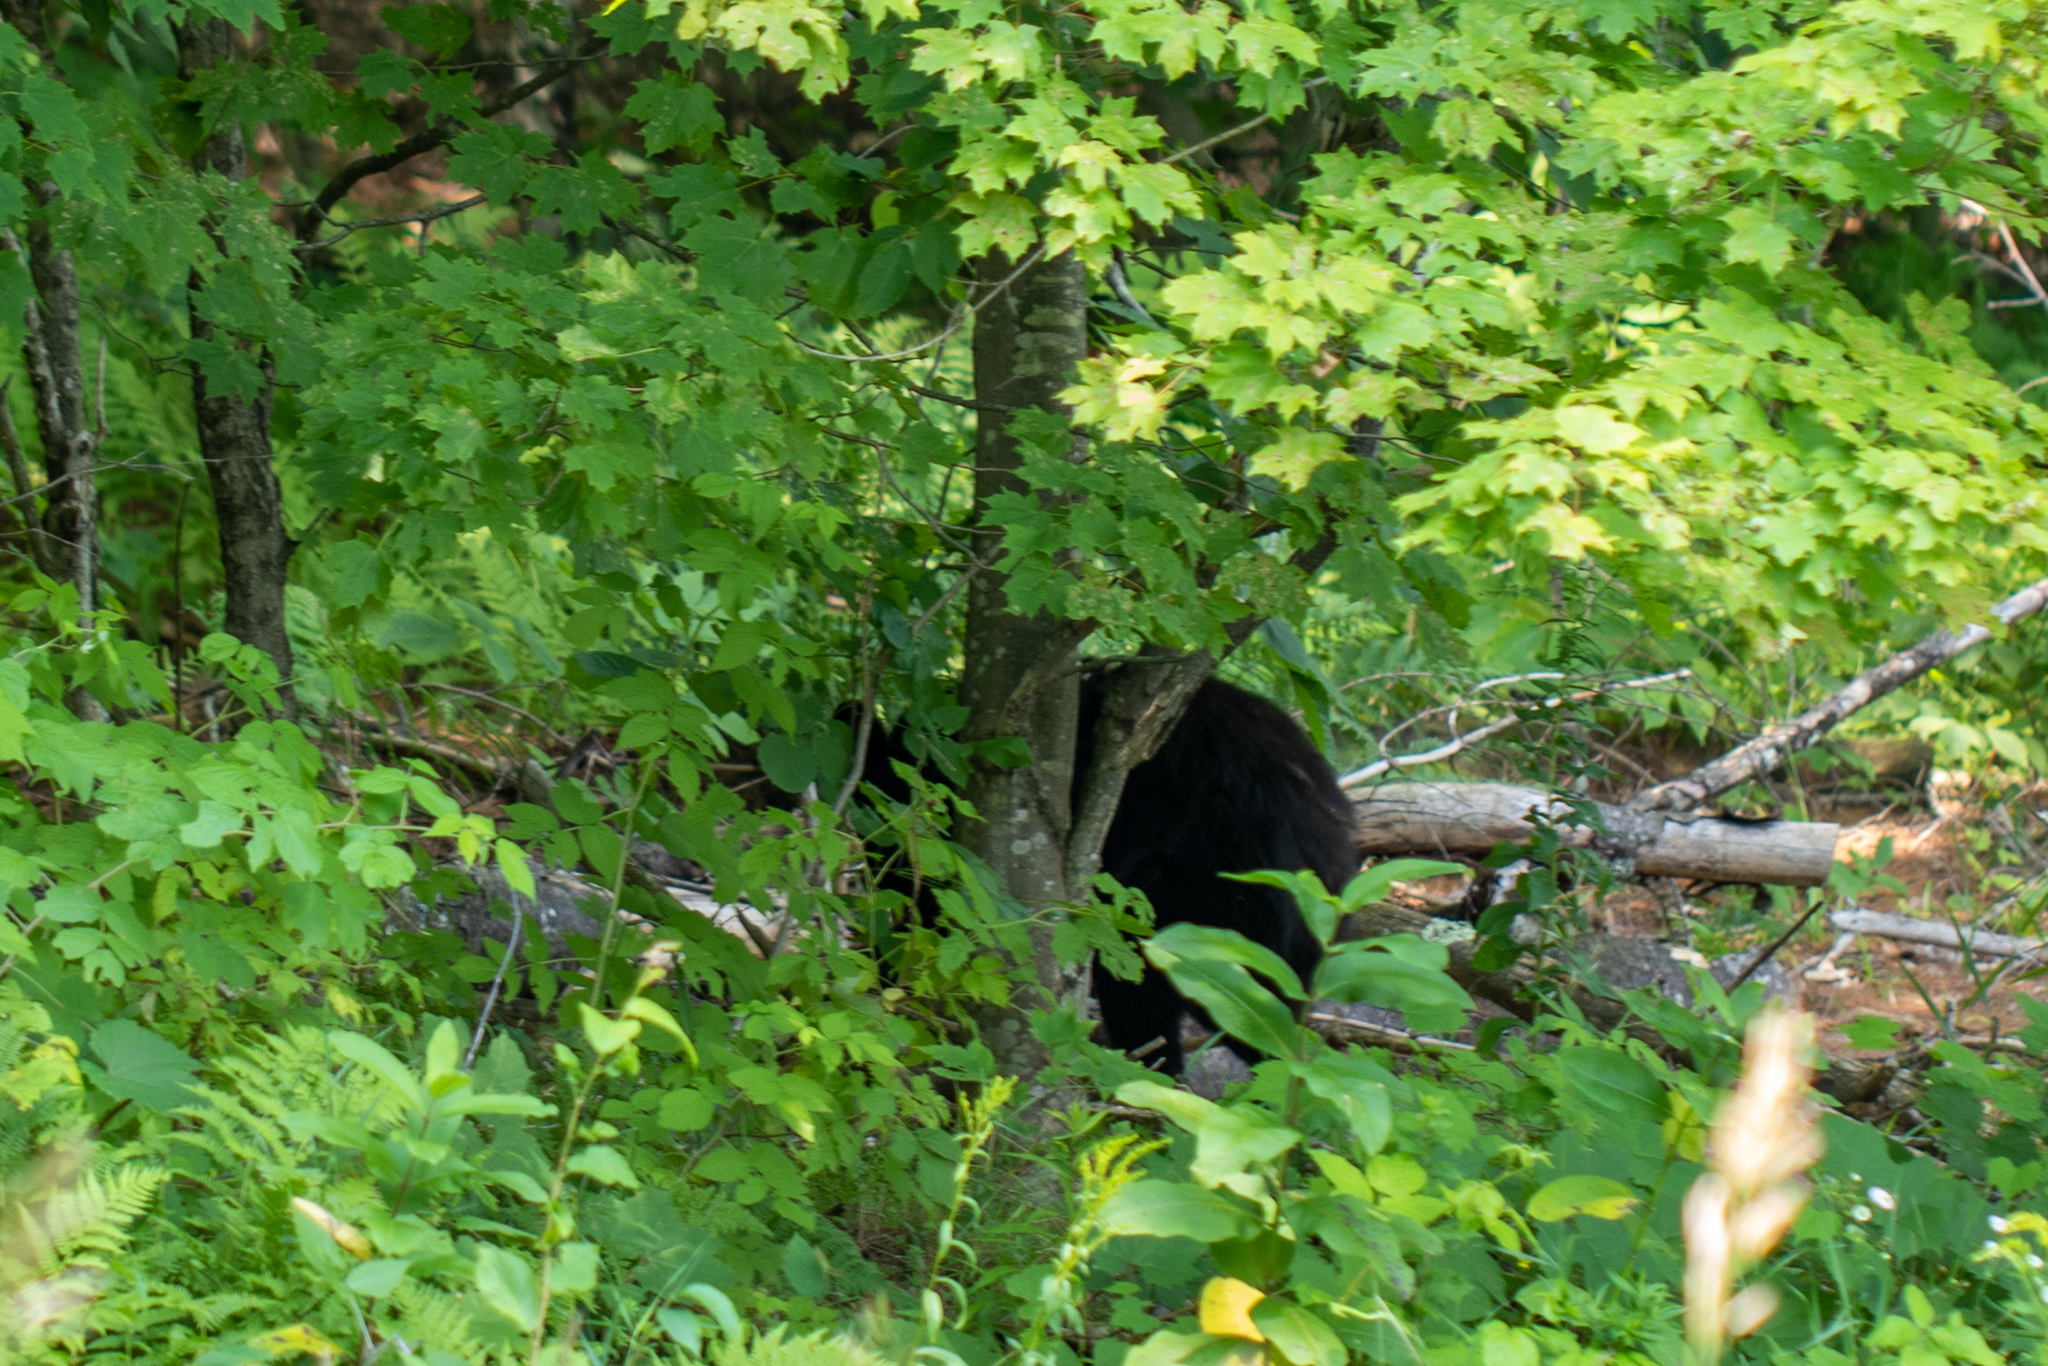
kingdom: Animalia
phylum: Chordata
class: Mammalia
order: Carnivora
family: Ursidae
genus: Ursus
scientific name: Ursus americanus
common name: American black bear
